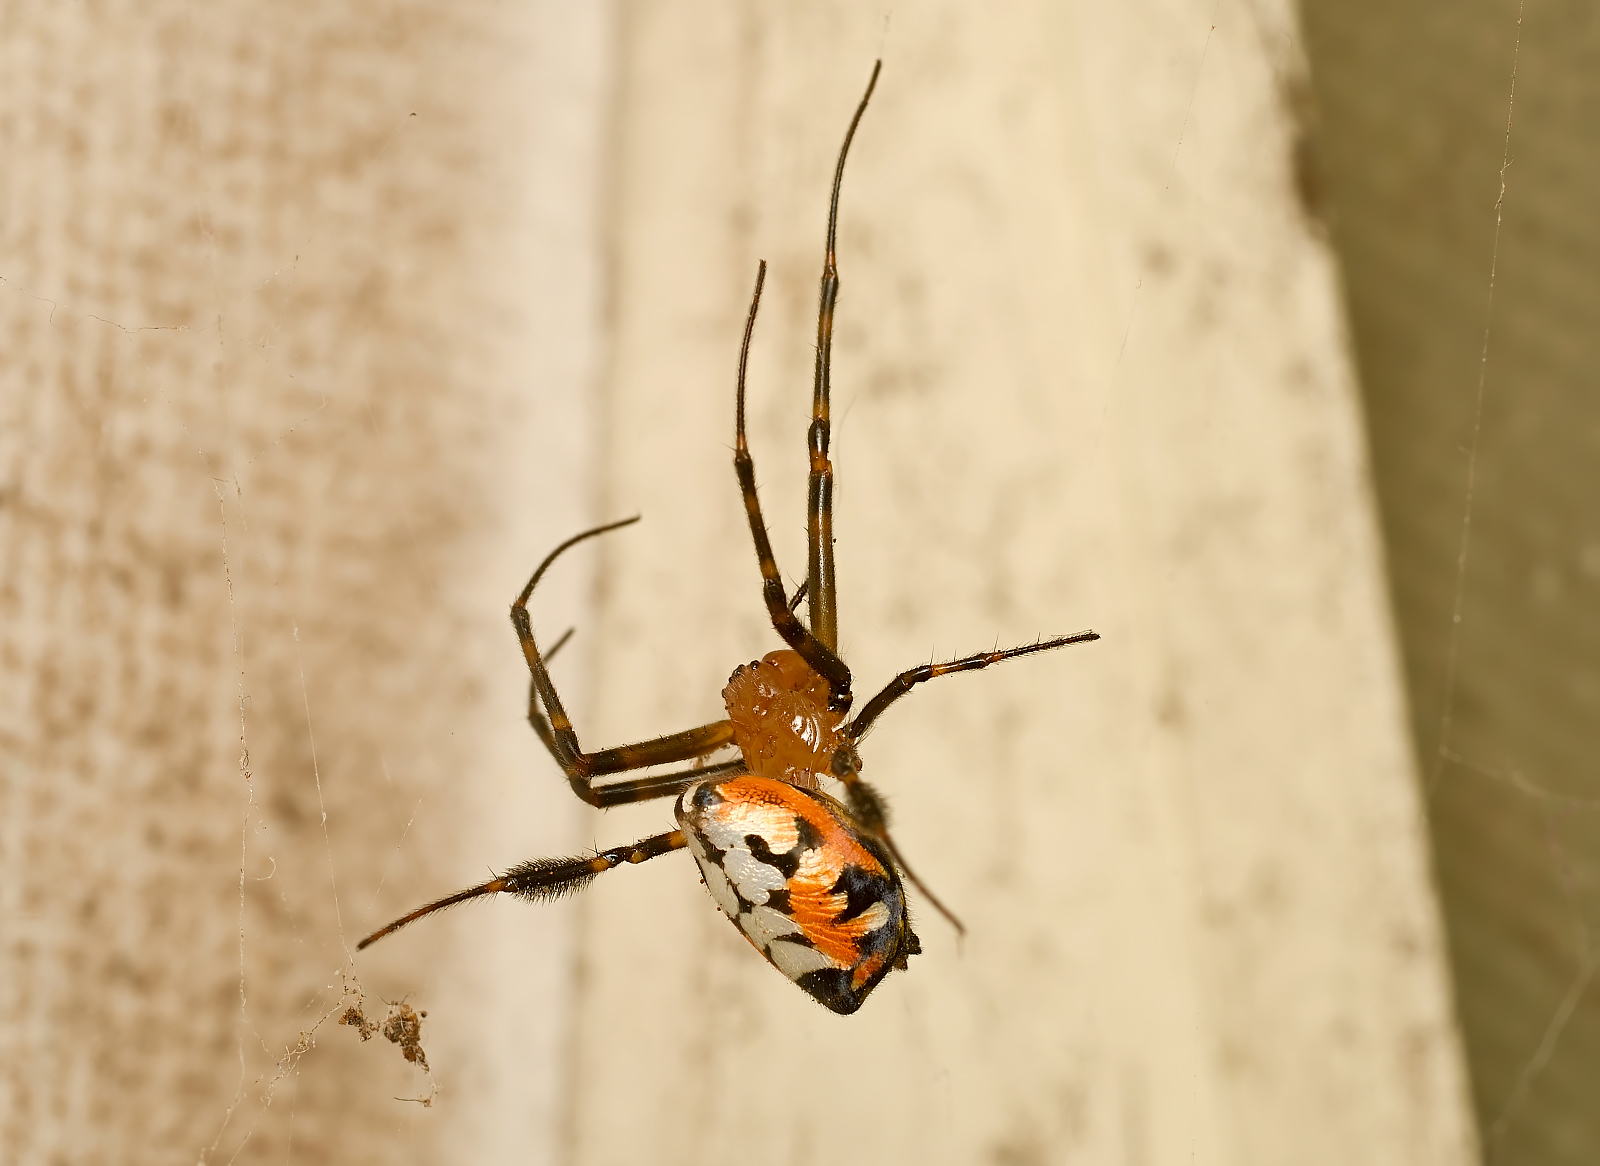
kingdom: Animalia
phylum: Arthropoda
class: Arachnida
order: Araneae
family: Tetragnathidae
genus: Leucauge
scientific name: Leucauge fastigata
